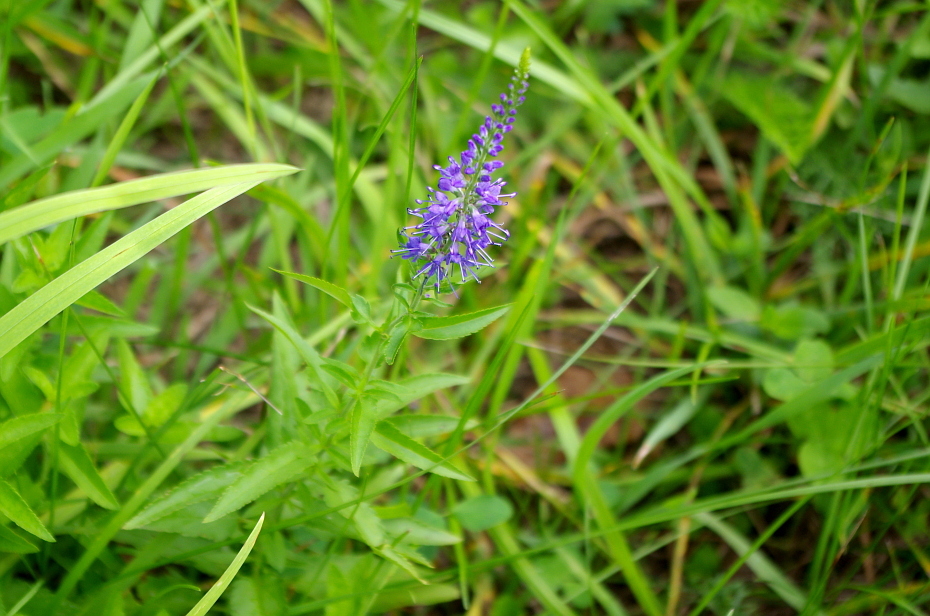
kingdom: Plantae
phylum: Tracheophyta
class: Magnoliopsida
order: Lamiales
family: Plantaginaceae
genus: Veronica
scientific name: Veronica longifolia
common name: Garden speedwell
